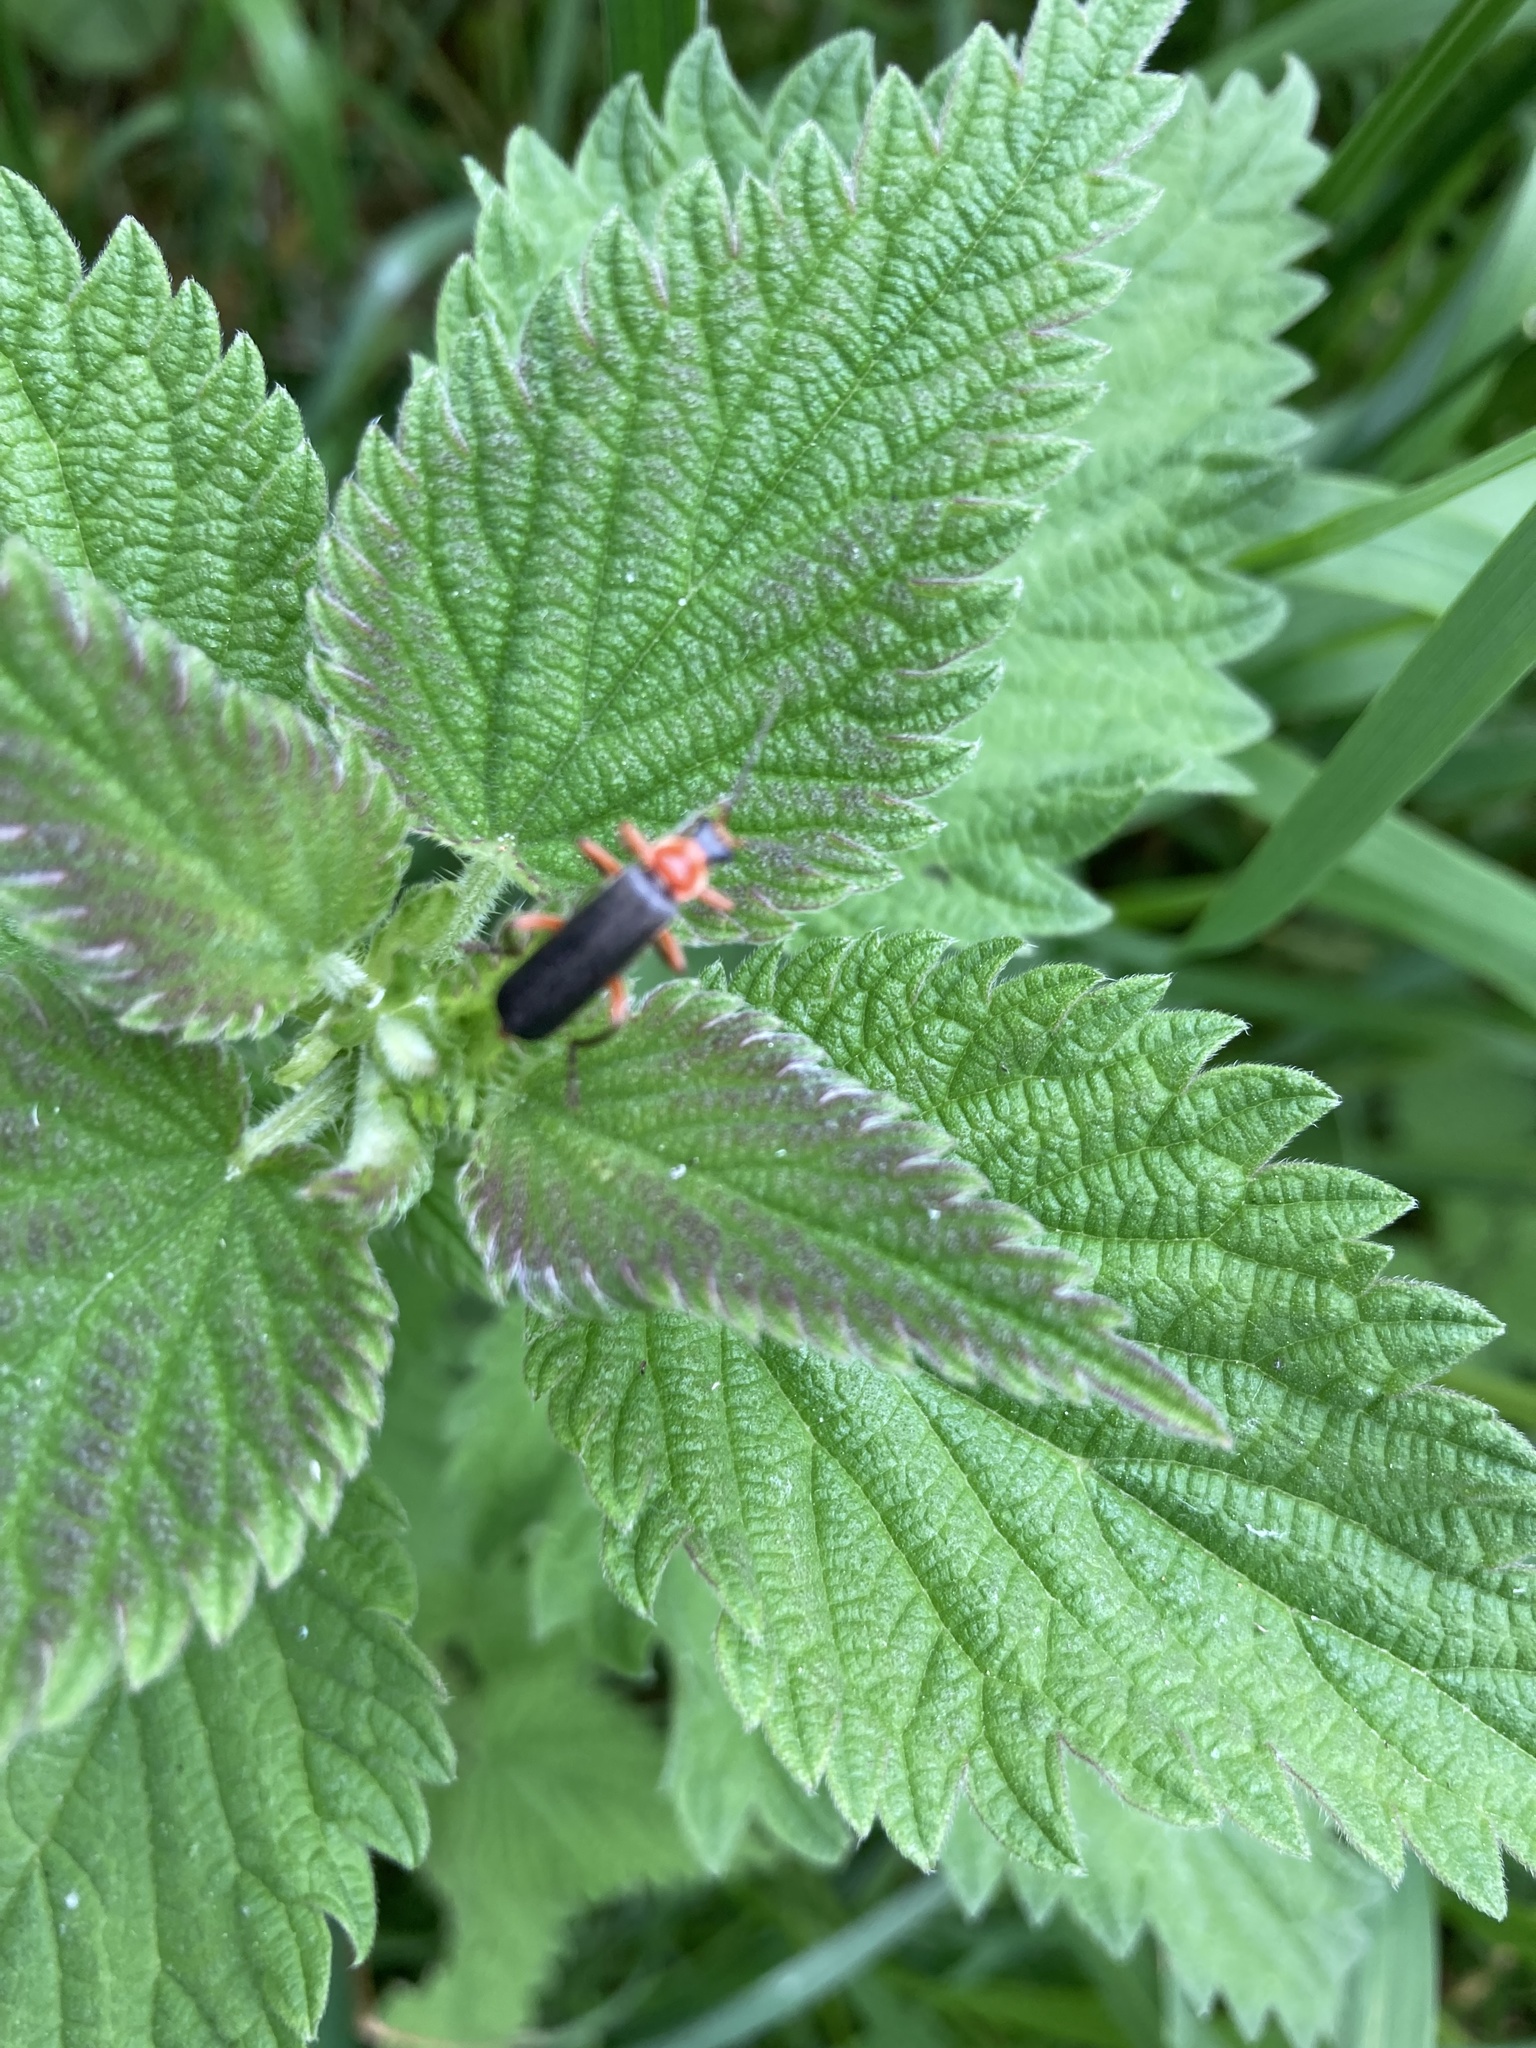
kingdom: Animalia
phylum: Arthropoda
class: Insecta
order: Coleoptera
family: Cantharidae
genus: Cantharis
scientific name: Cantharis pellucida
